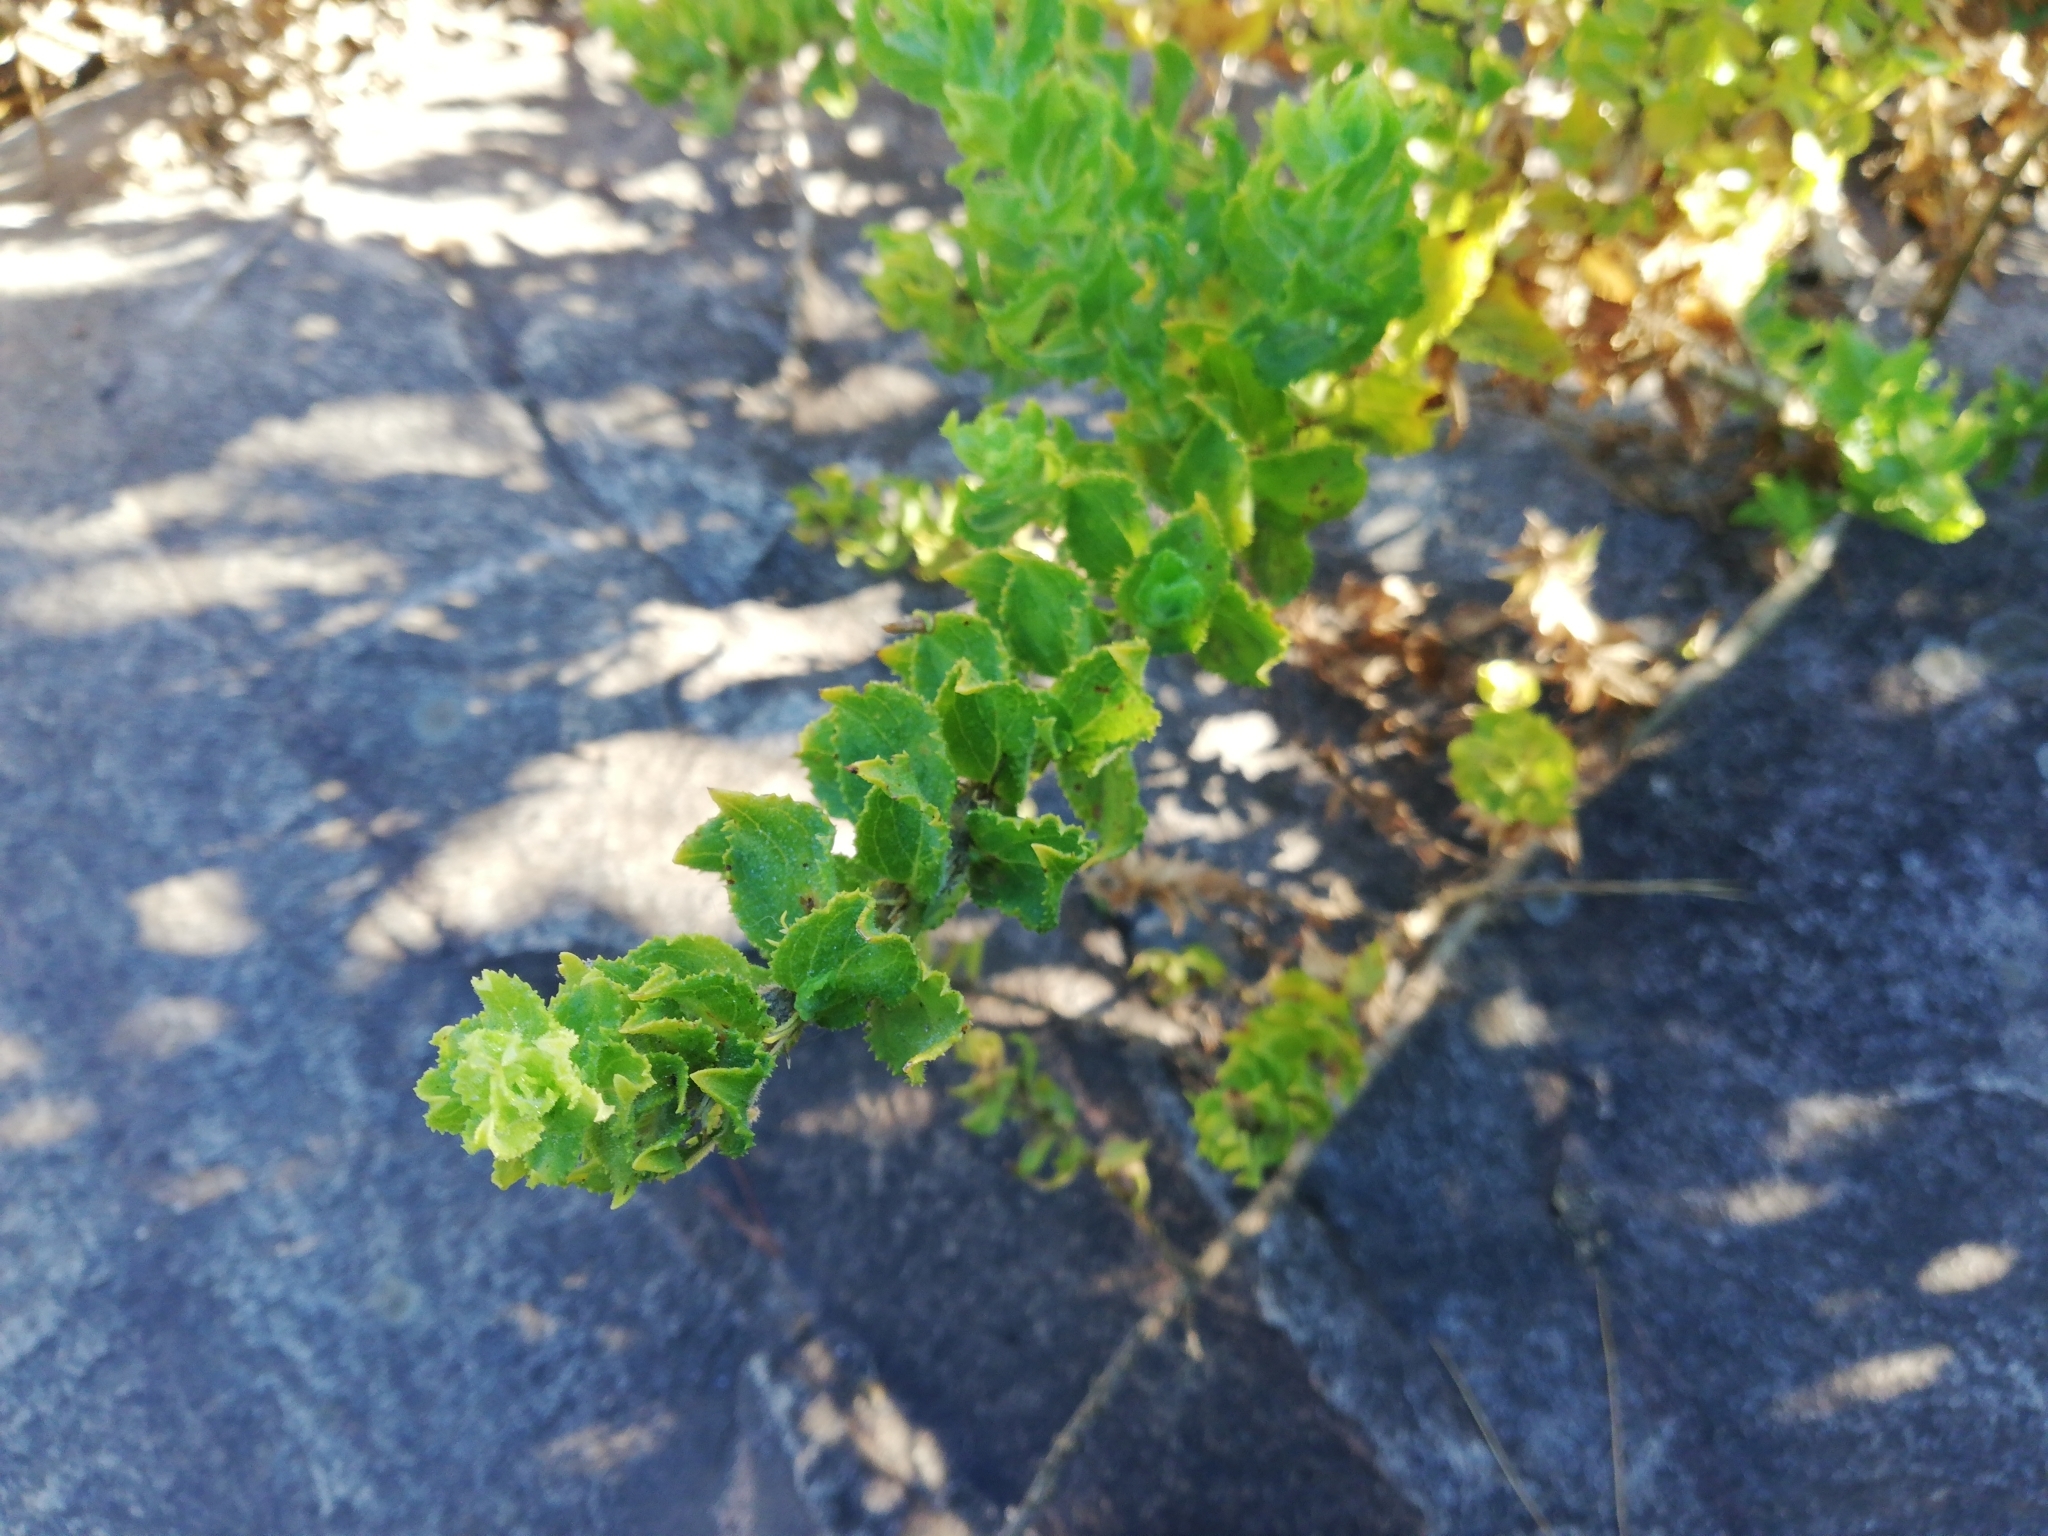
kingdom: Plantae
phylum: Tracheophyta
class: Magnoliopsida
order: Lamiales
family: Scrophulariaceae
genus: Oftia
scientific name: Oftia africana
